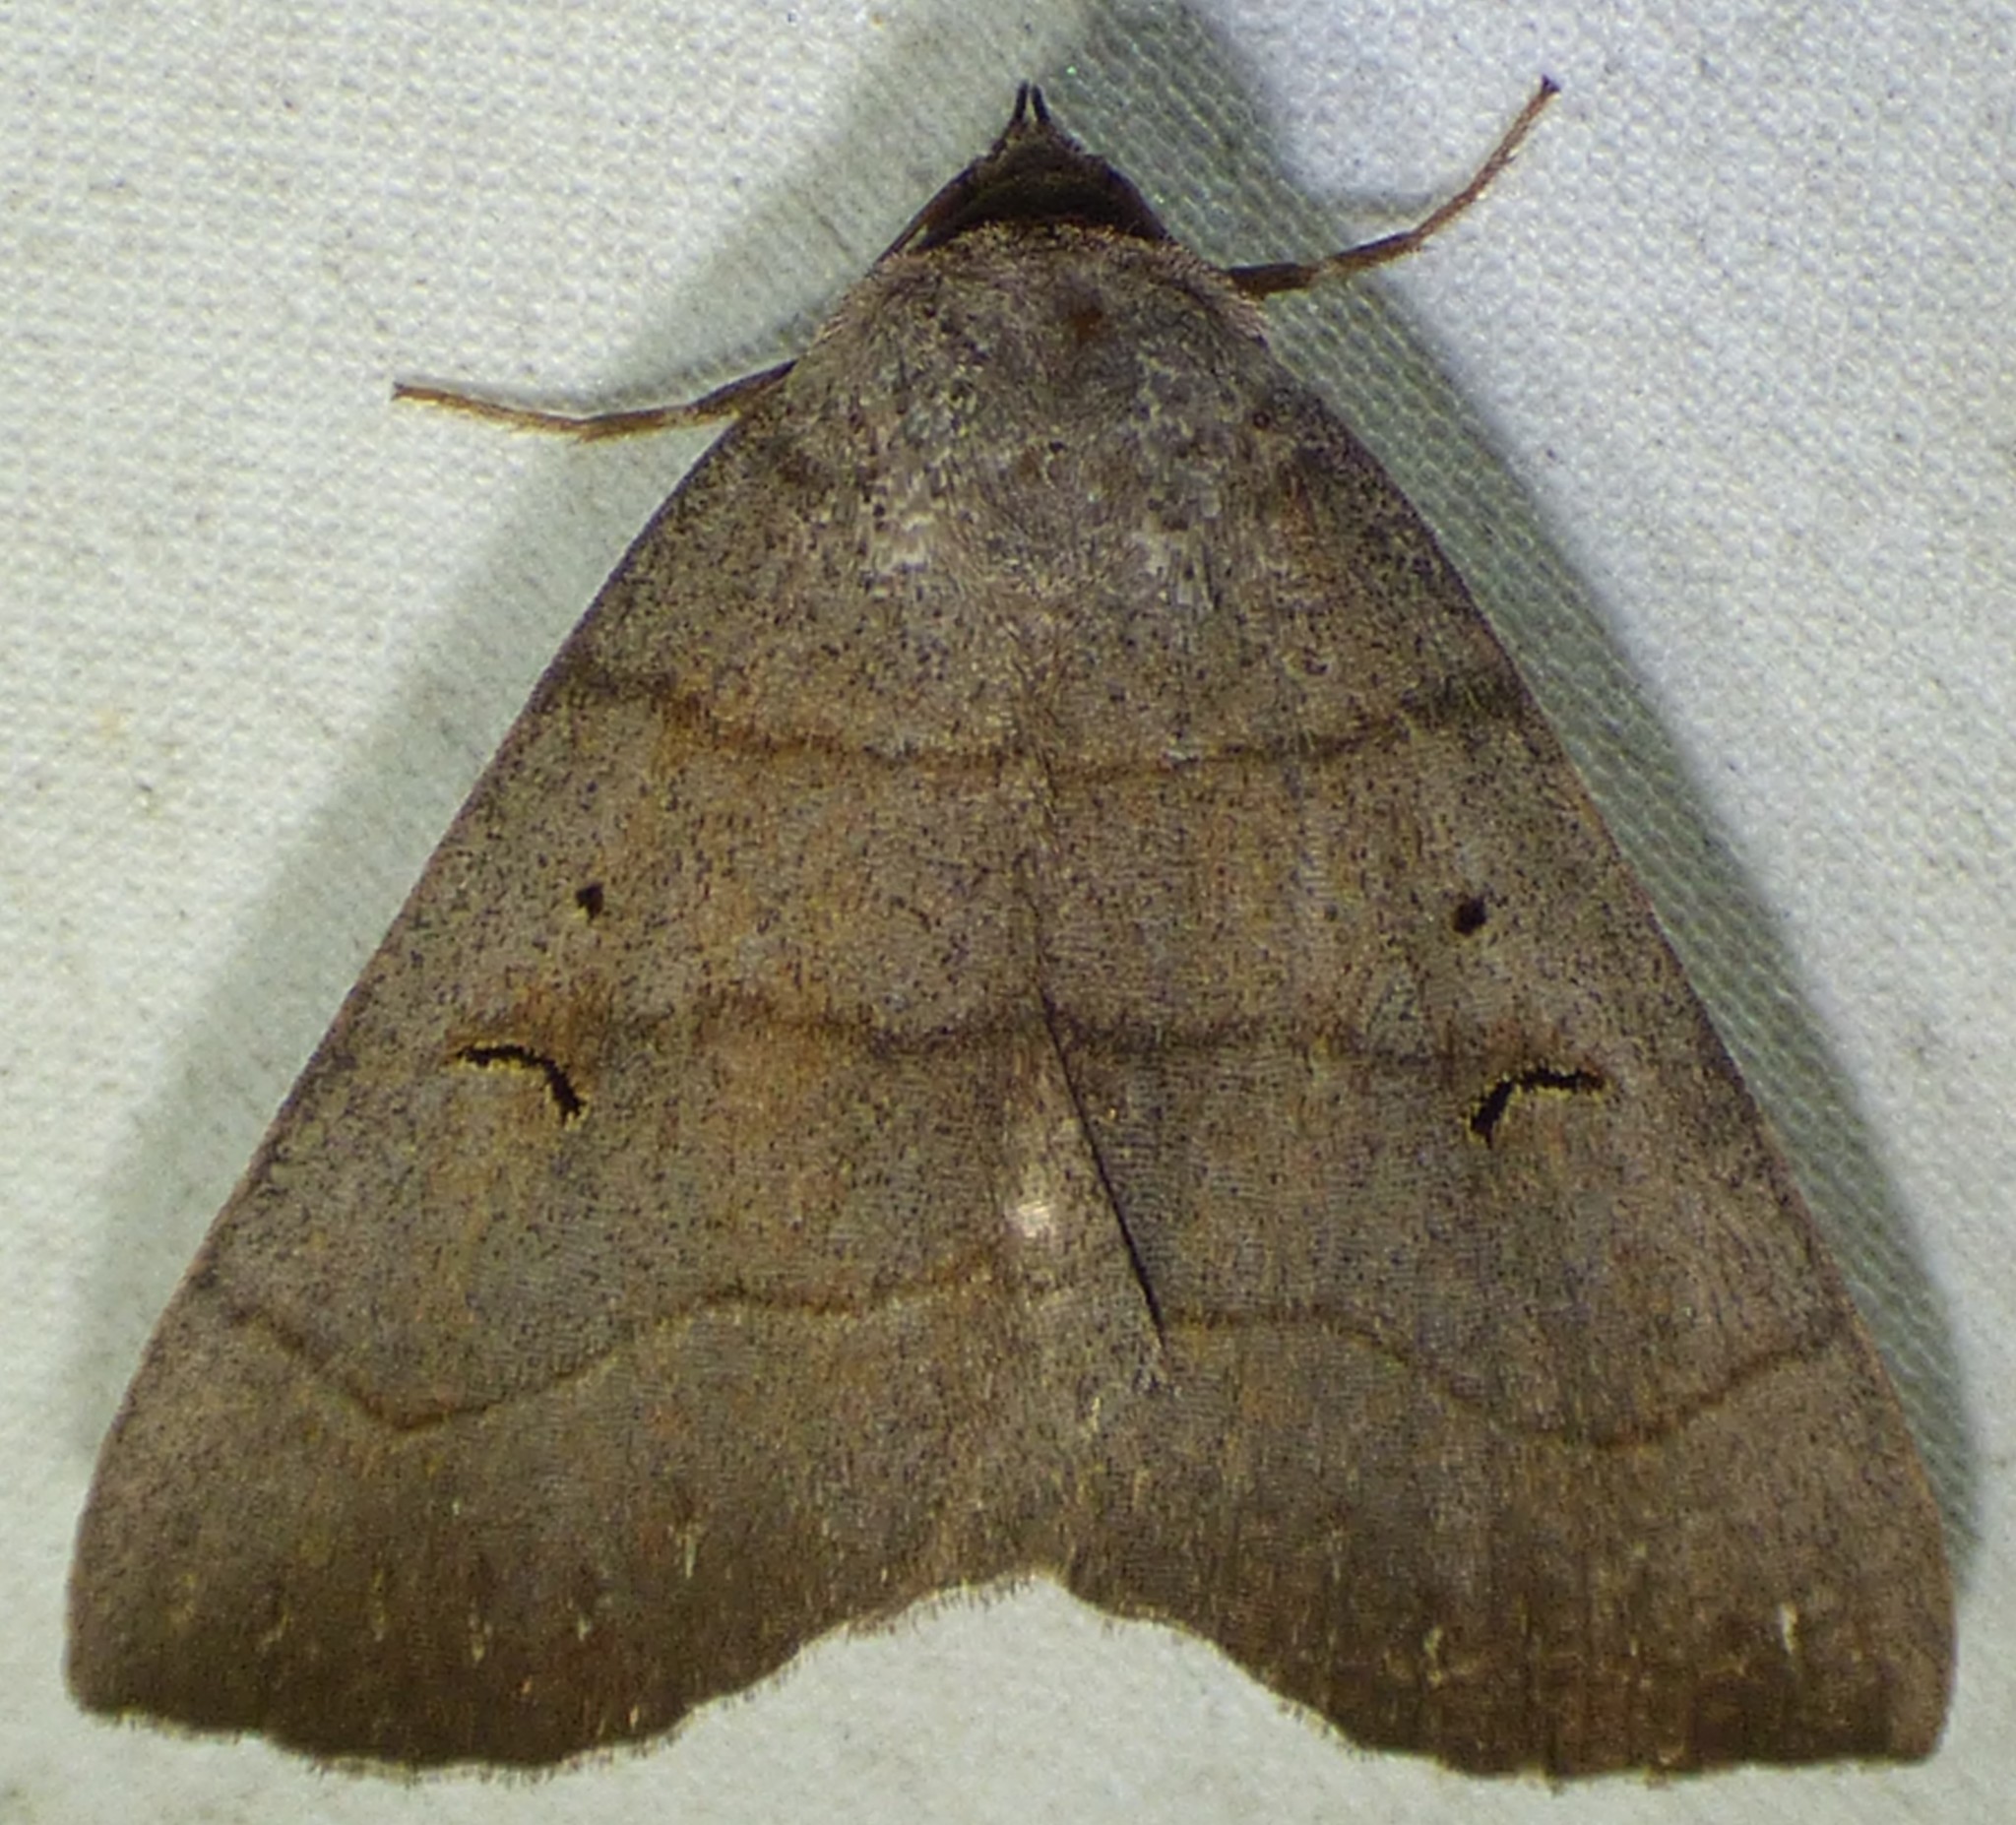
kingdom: Animalia
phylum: Arthropoda
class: Insecta
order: Lepidoptera
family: Erebidae
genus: Panopoda
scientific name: Panopoda carneicosta
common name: Brown panopoda moth
